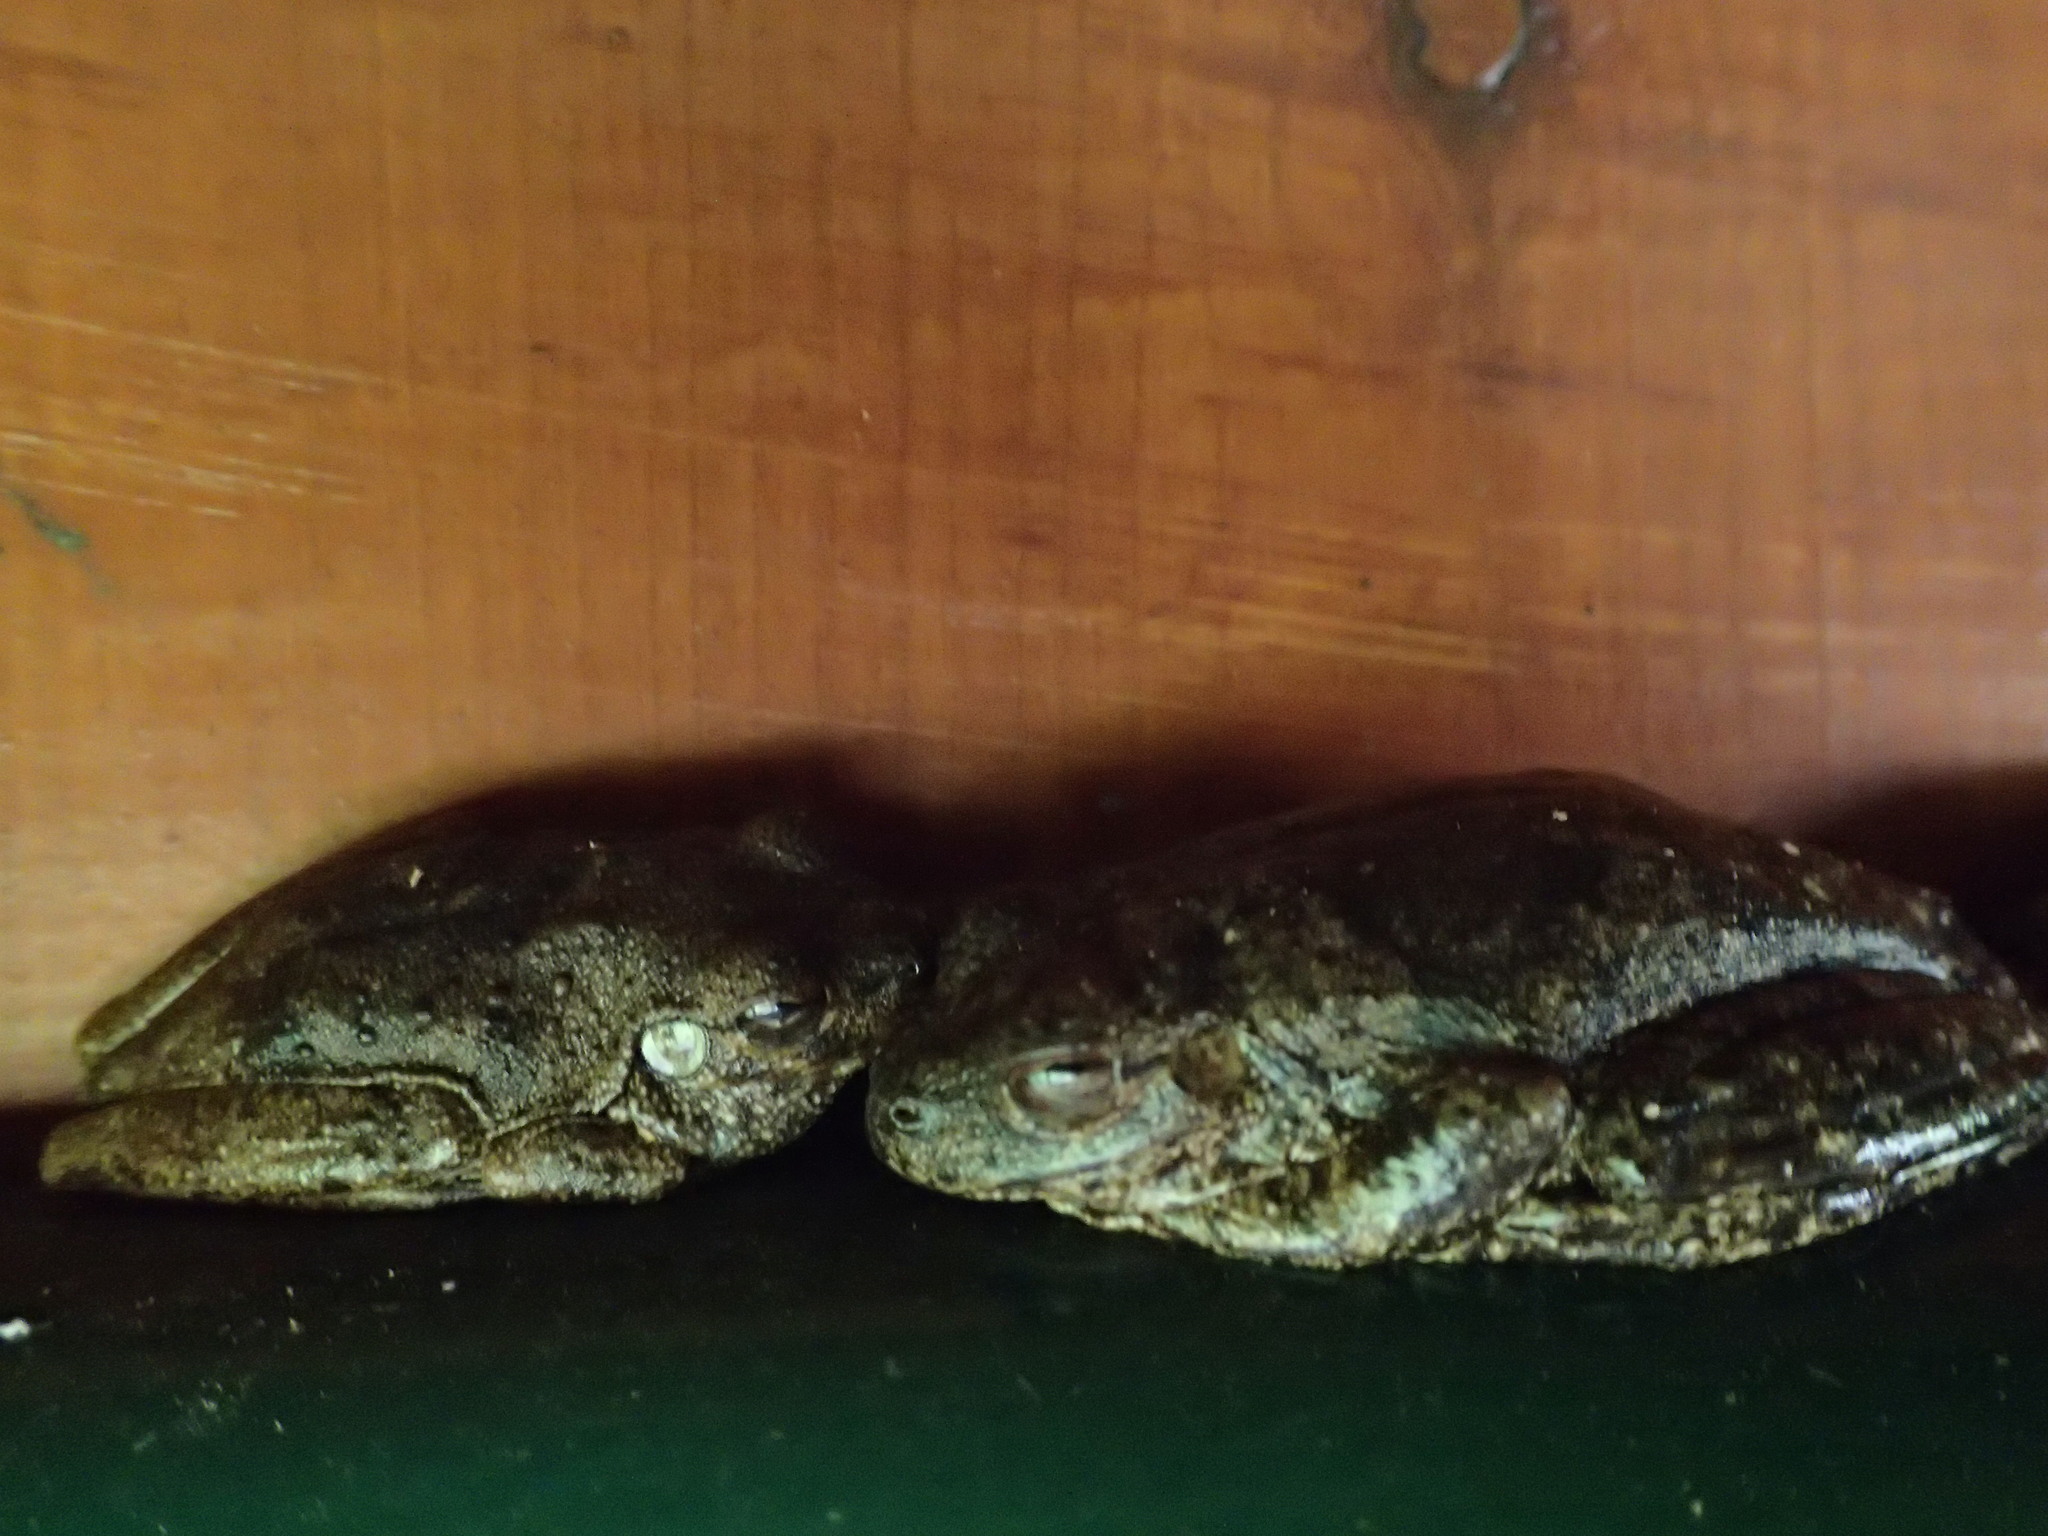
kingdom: Animalia
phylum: Chordata
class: Amphibia
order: Anura
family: Pelodryadidae
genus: Litoria
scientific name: Litoria rothii
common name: Roth’s tree frog
